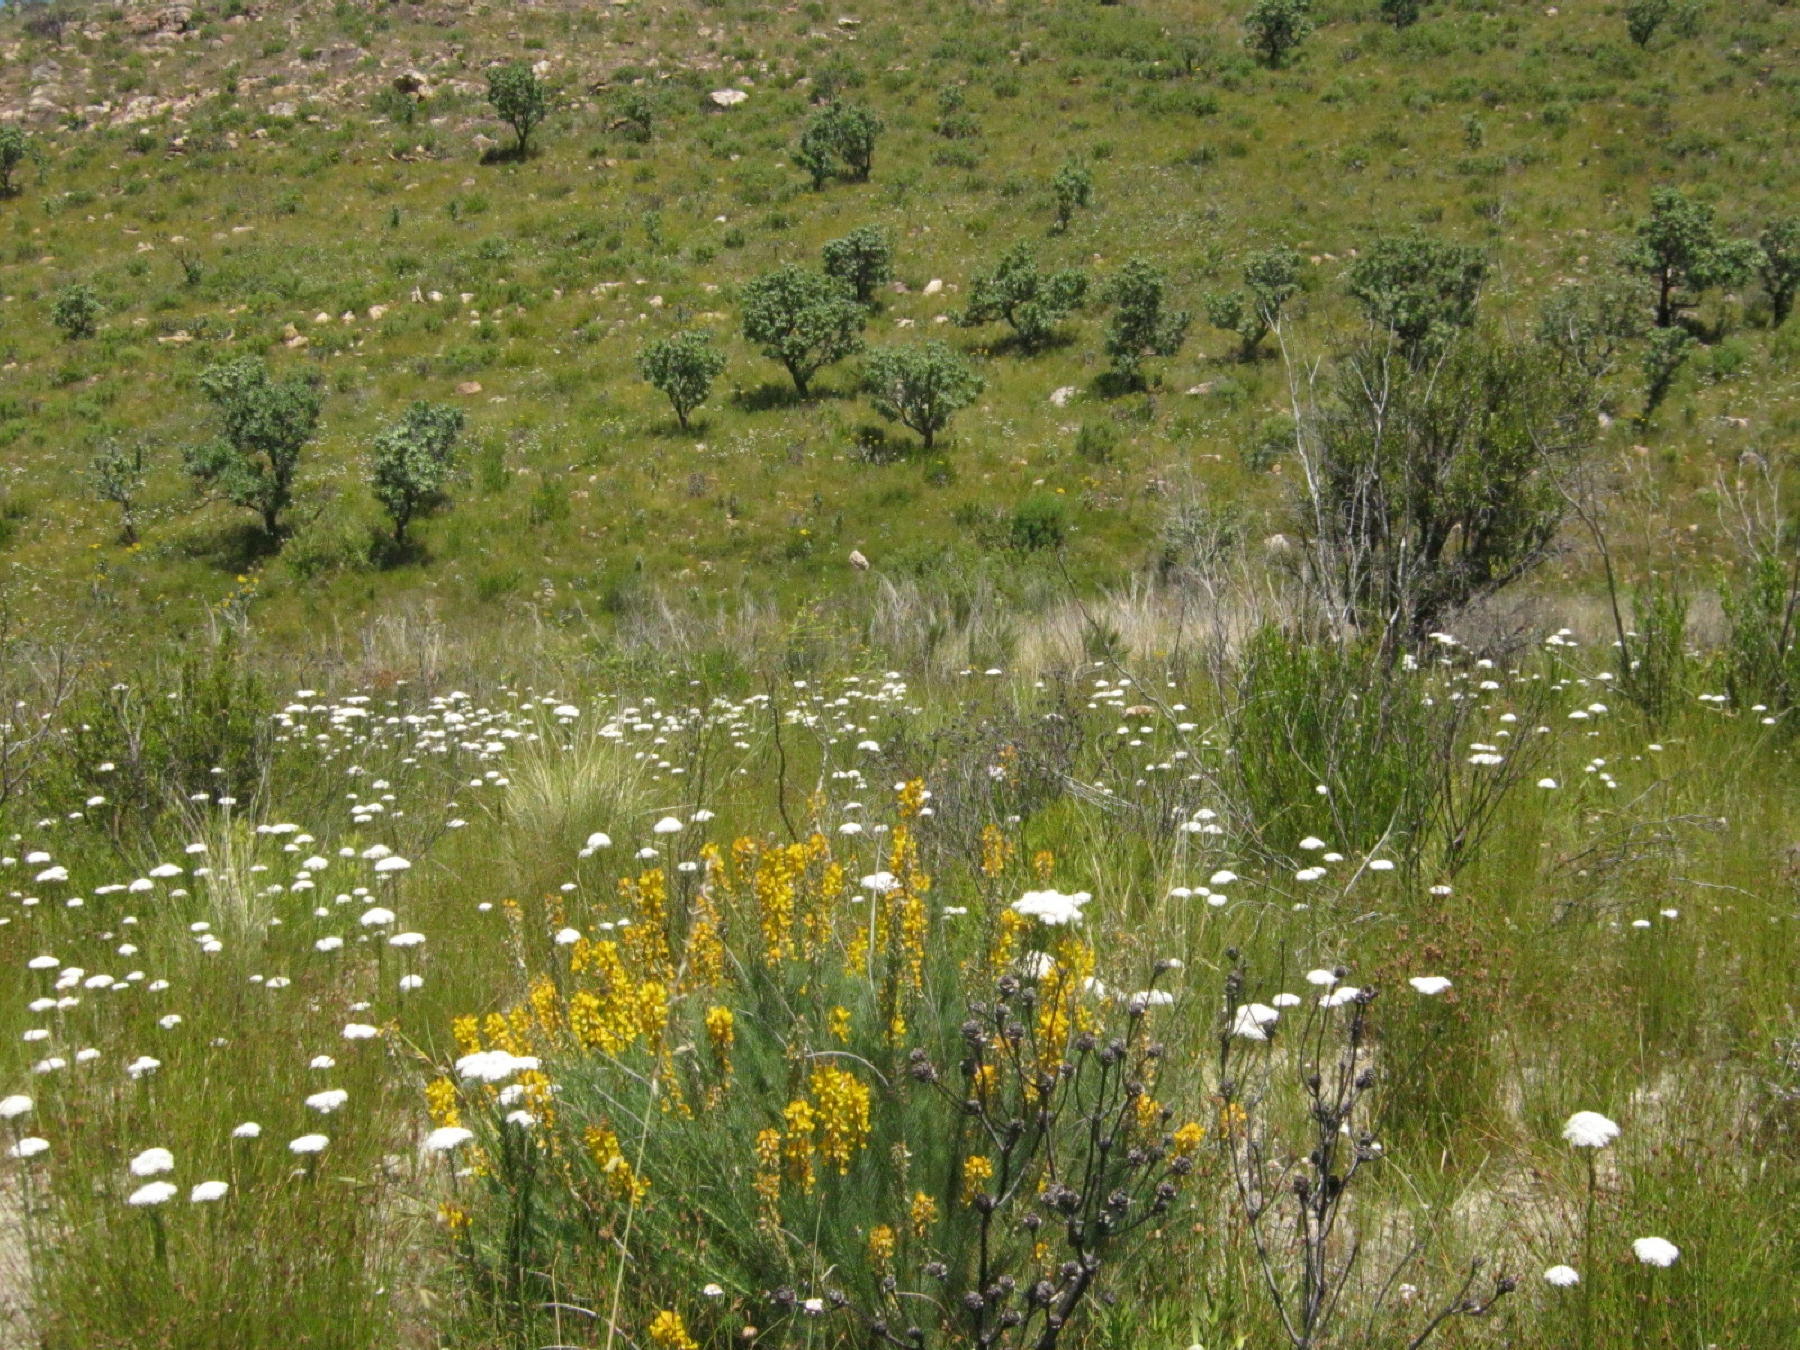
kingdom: Plantae
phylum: Tracheophyta
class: Magnoliopsida
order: Fabales
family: Fabaceae
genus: Lebeckia
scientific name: Lebeckia sepiaria
